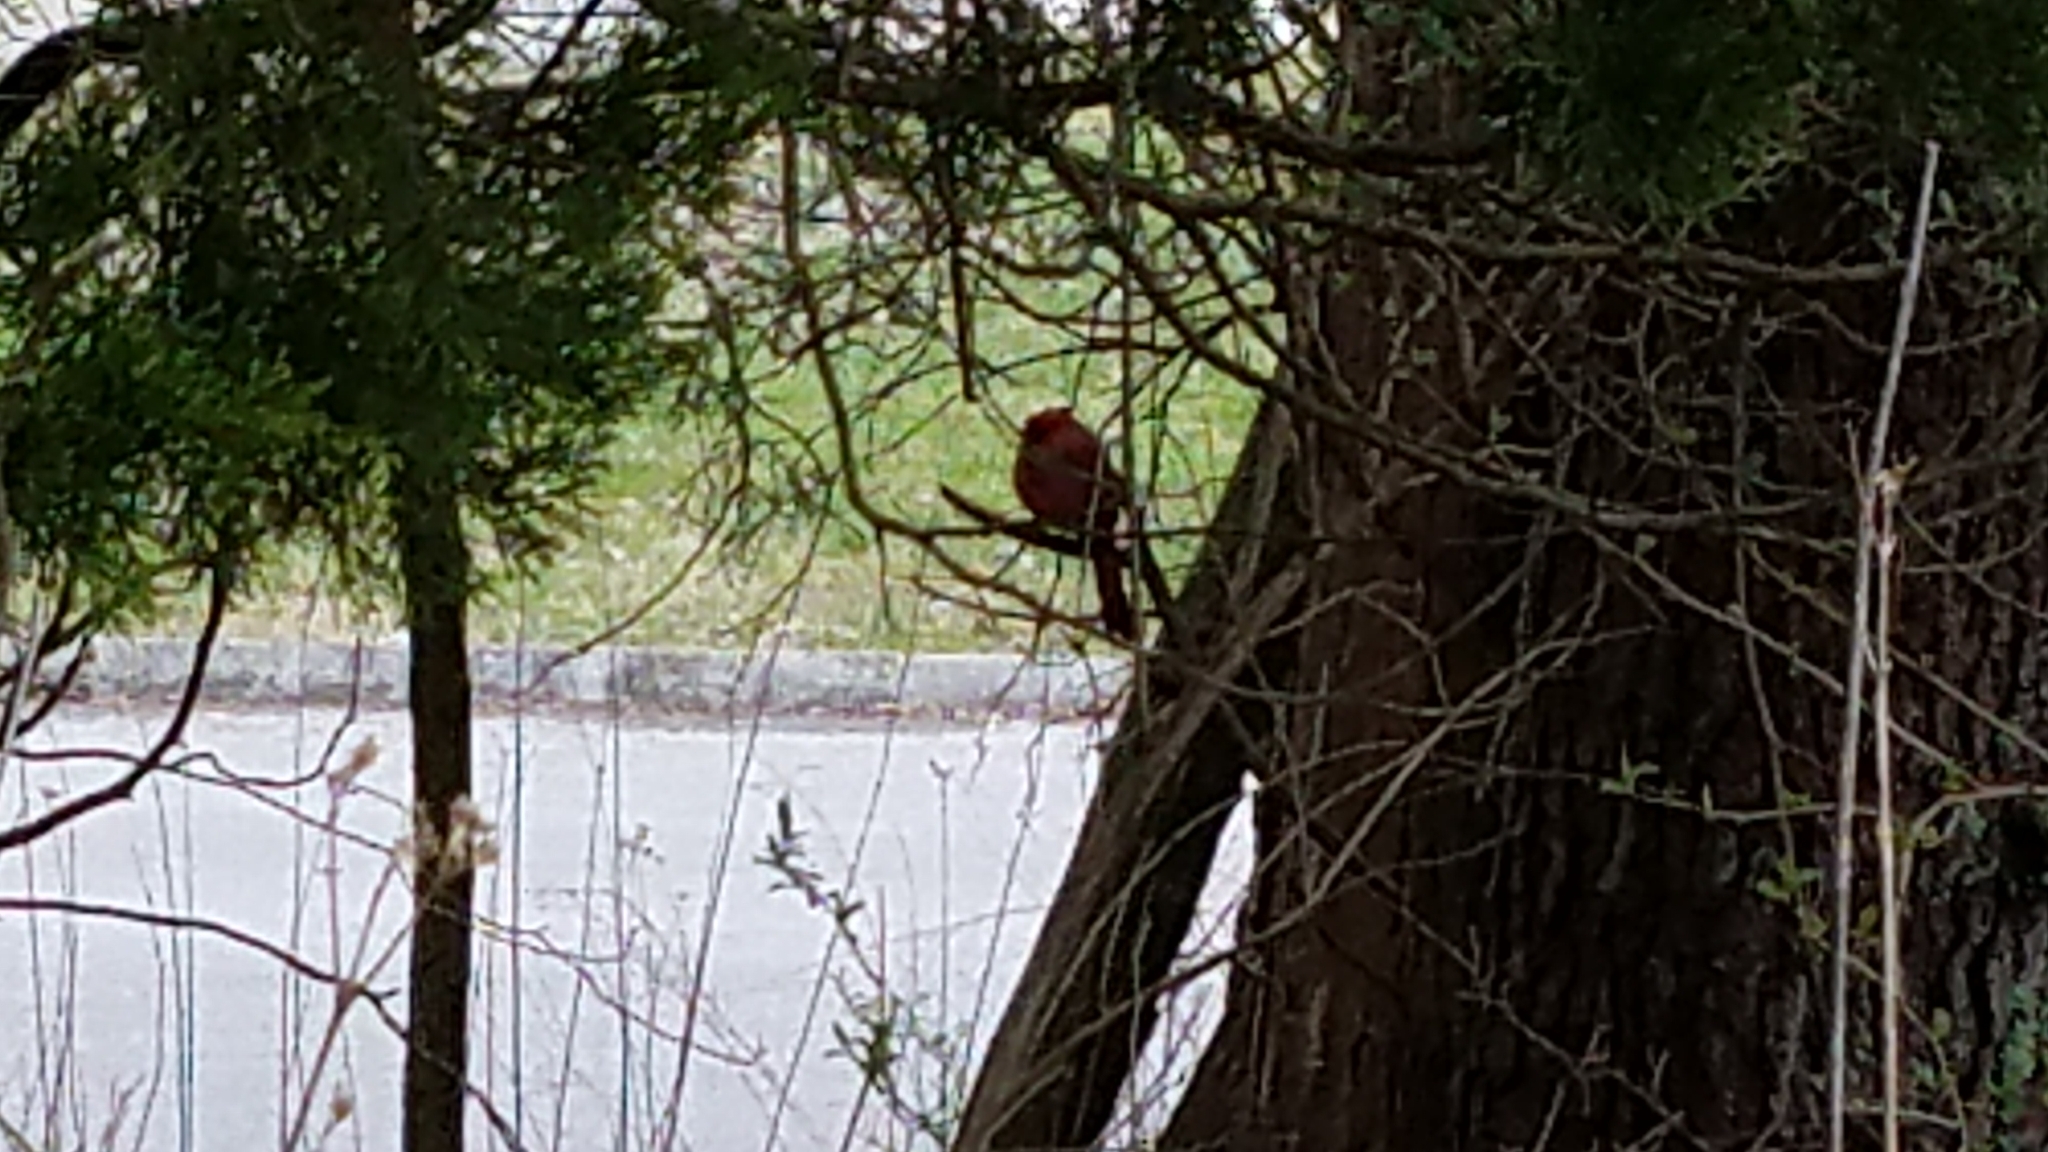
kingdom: Animalia
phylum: Chordata
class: Aves
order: Passeriformes
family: Cardinalidae
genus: Cardinalis
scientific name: Cardinalis cardinalis
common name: Northern cardinal
